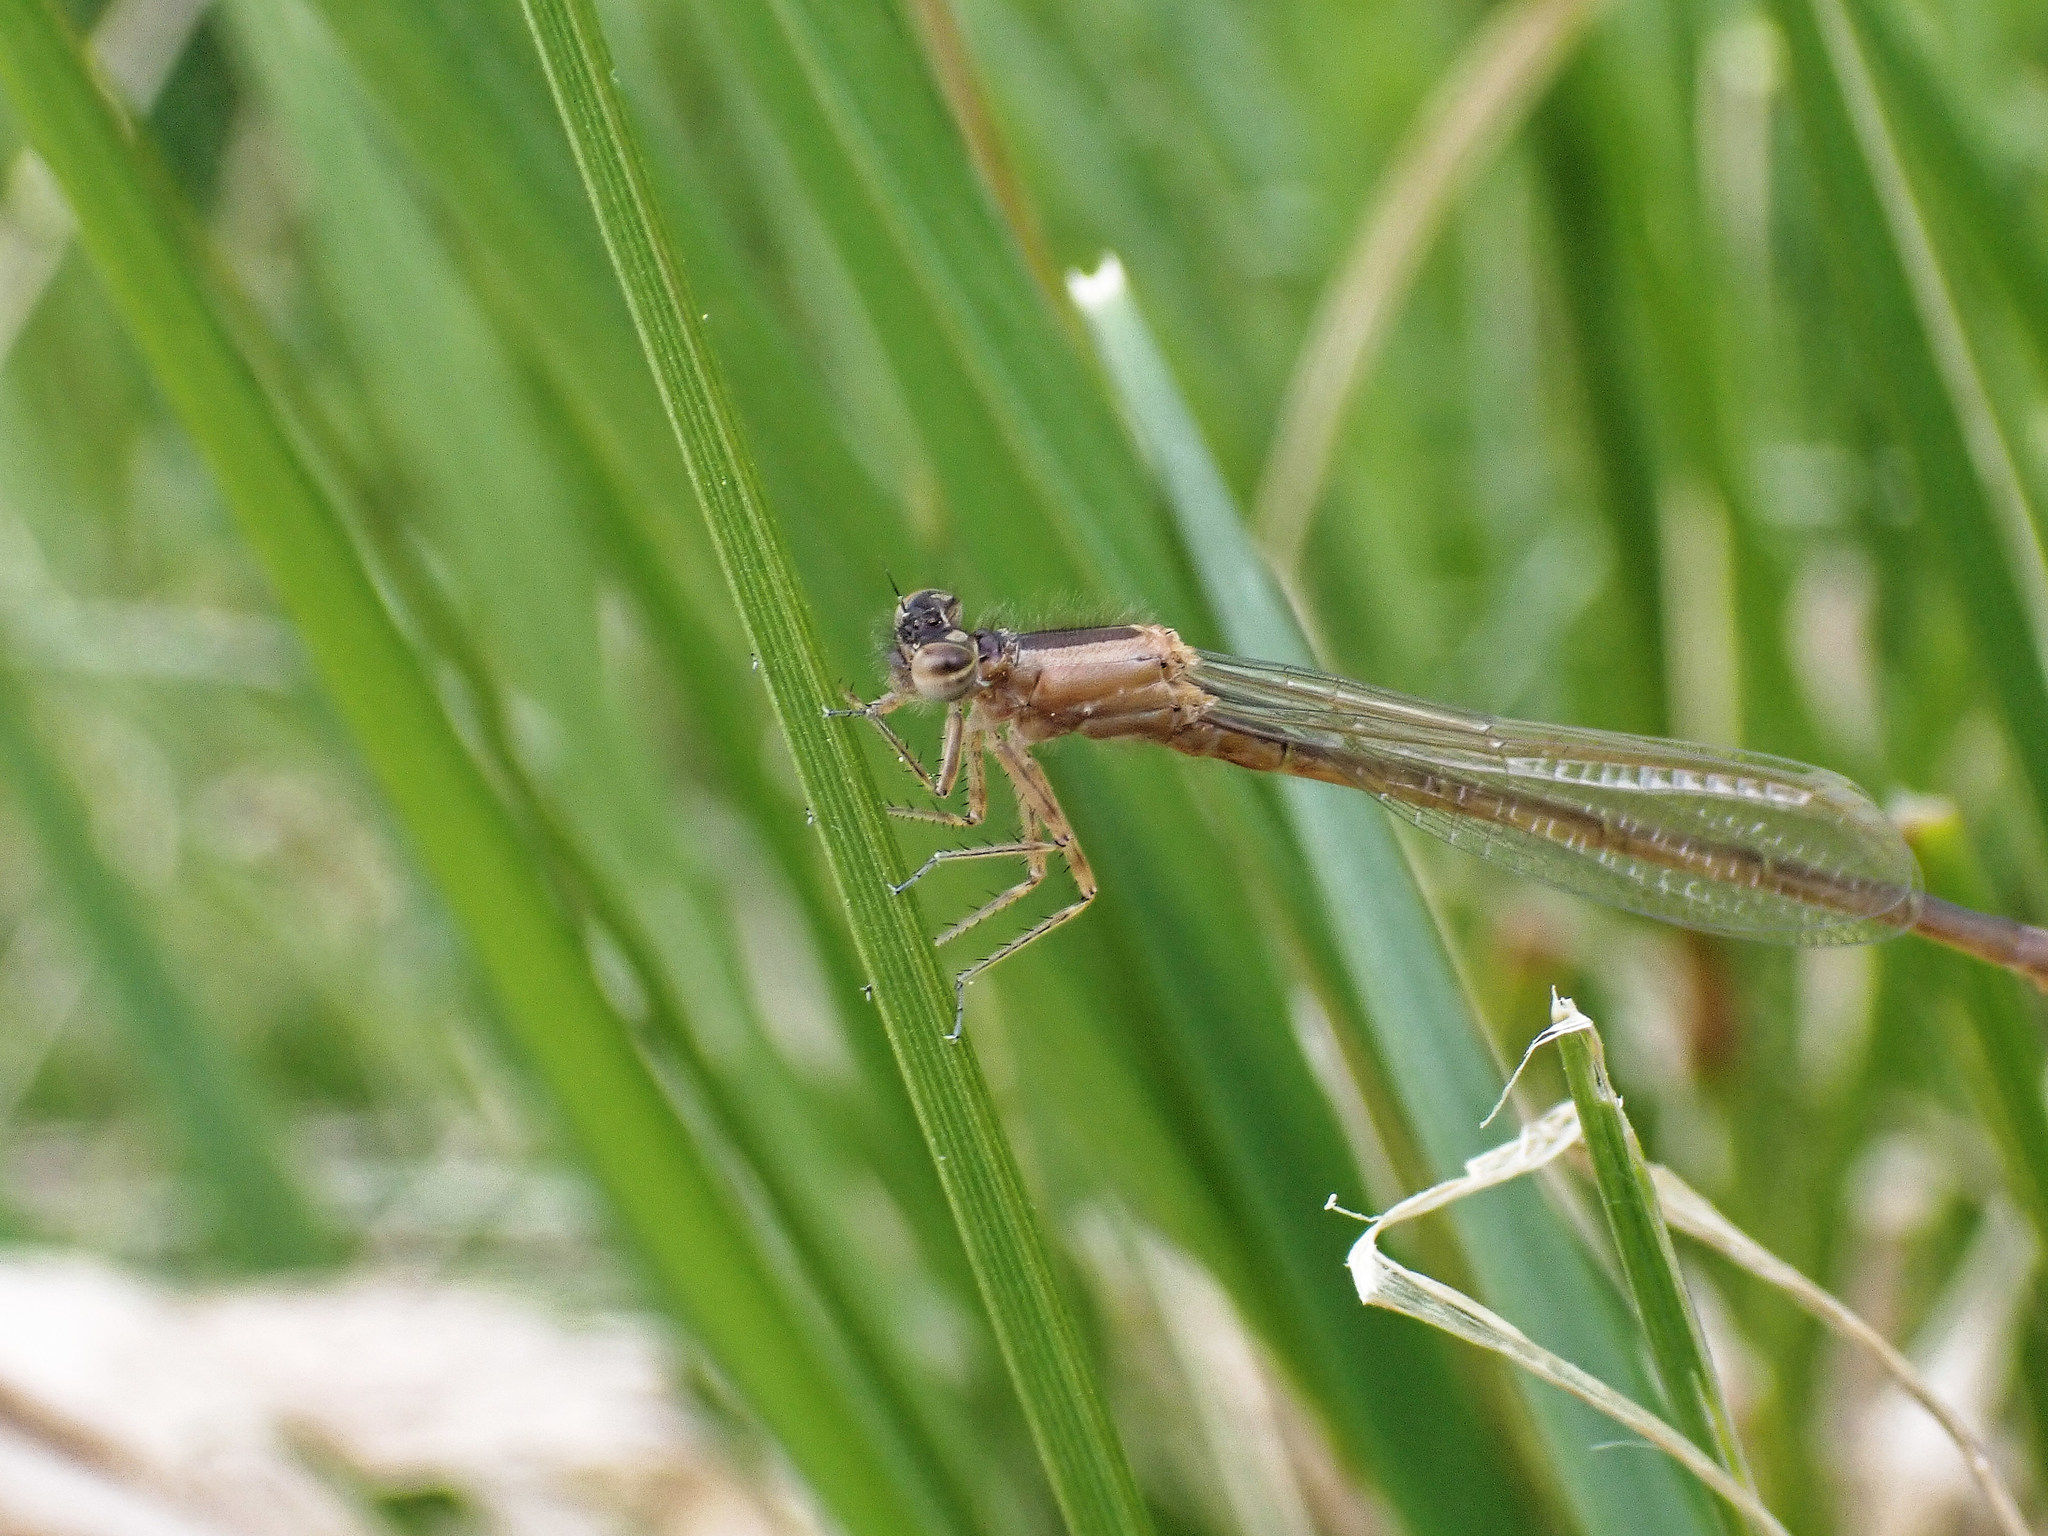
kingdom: Animalia
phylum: Arthropoda
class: Insecta
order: Odonata
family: Coenagrionidae
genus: Ischnura
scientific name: Ischnura elegans
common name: Blue-tailed damselfly
